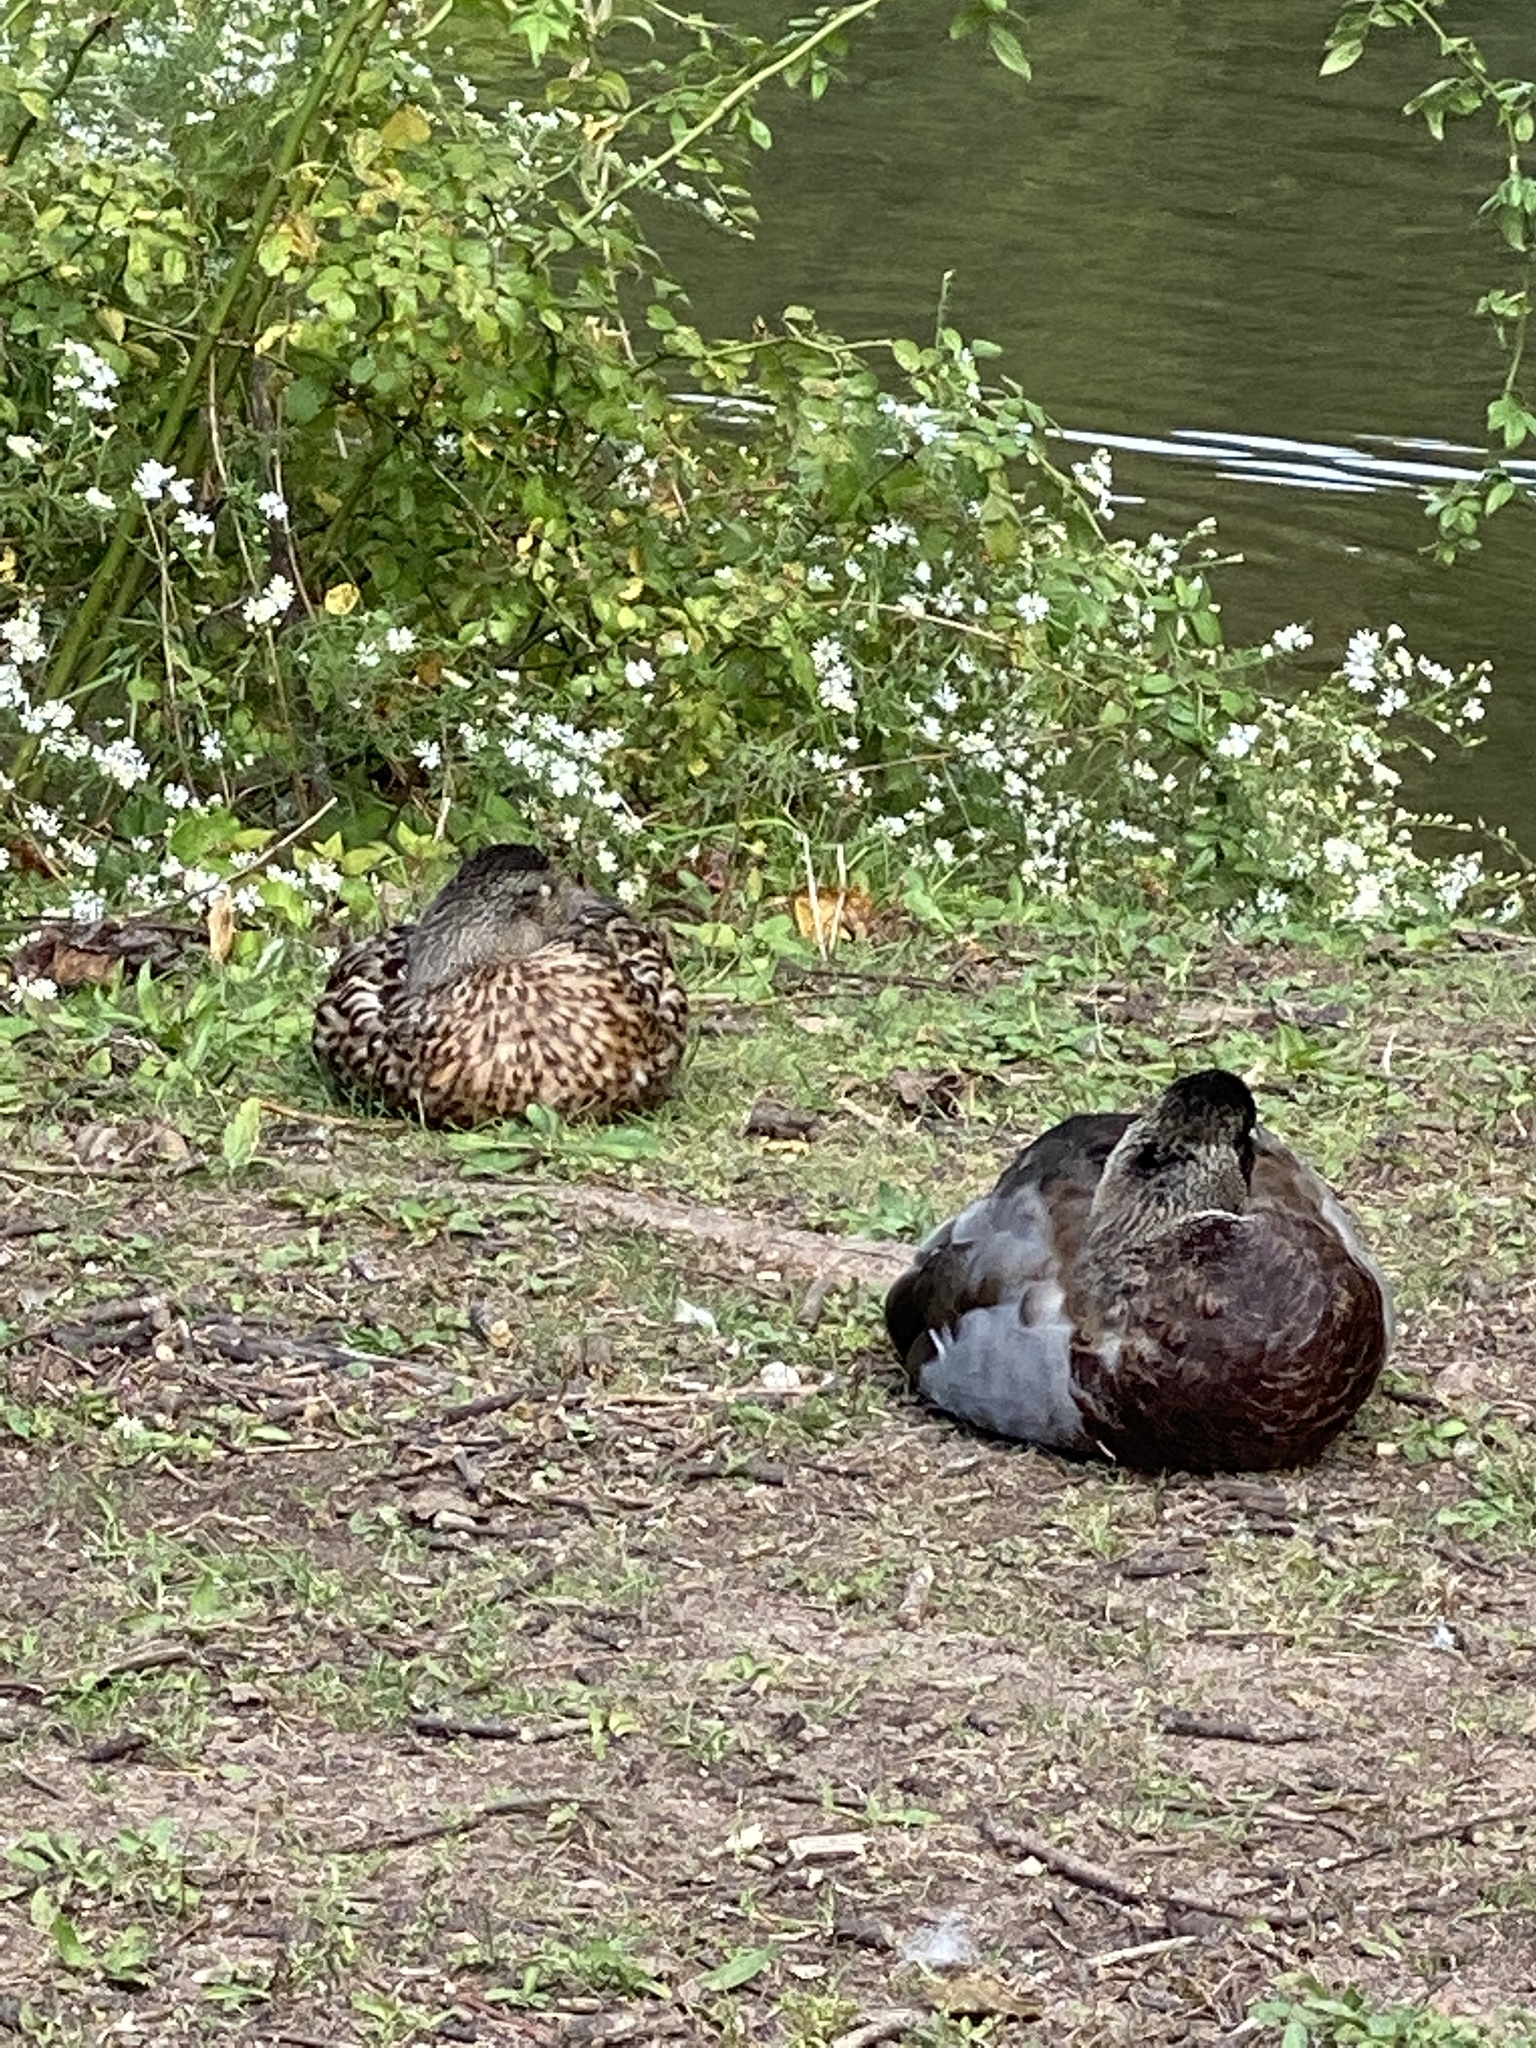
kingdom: Animalia
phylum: Chordata
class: Aves
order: Anseriformes
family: Anatidae
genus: Anas
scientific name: Anas platyrhynchos
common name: Mallard
